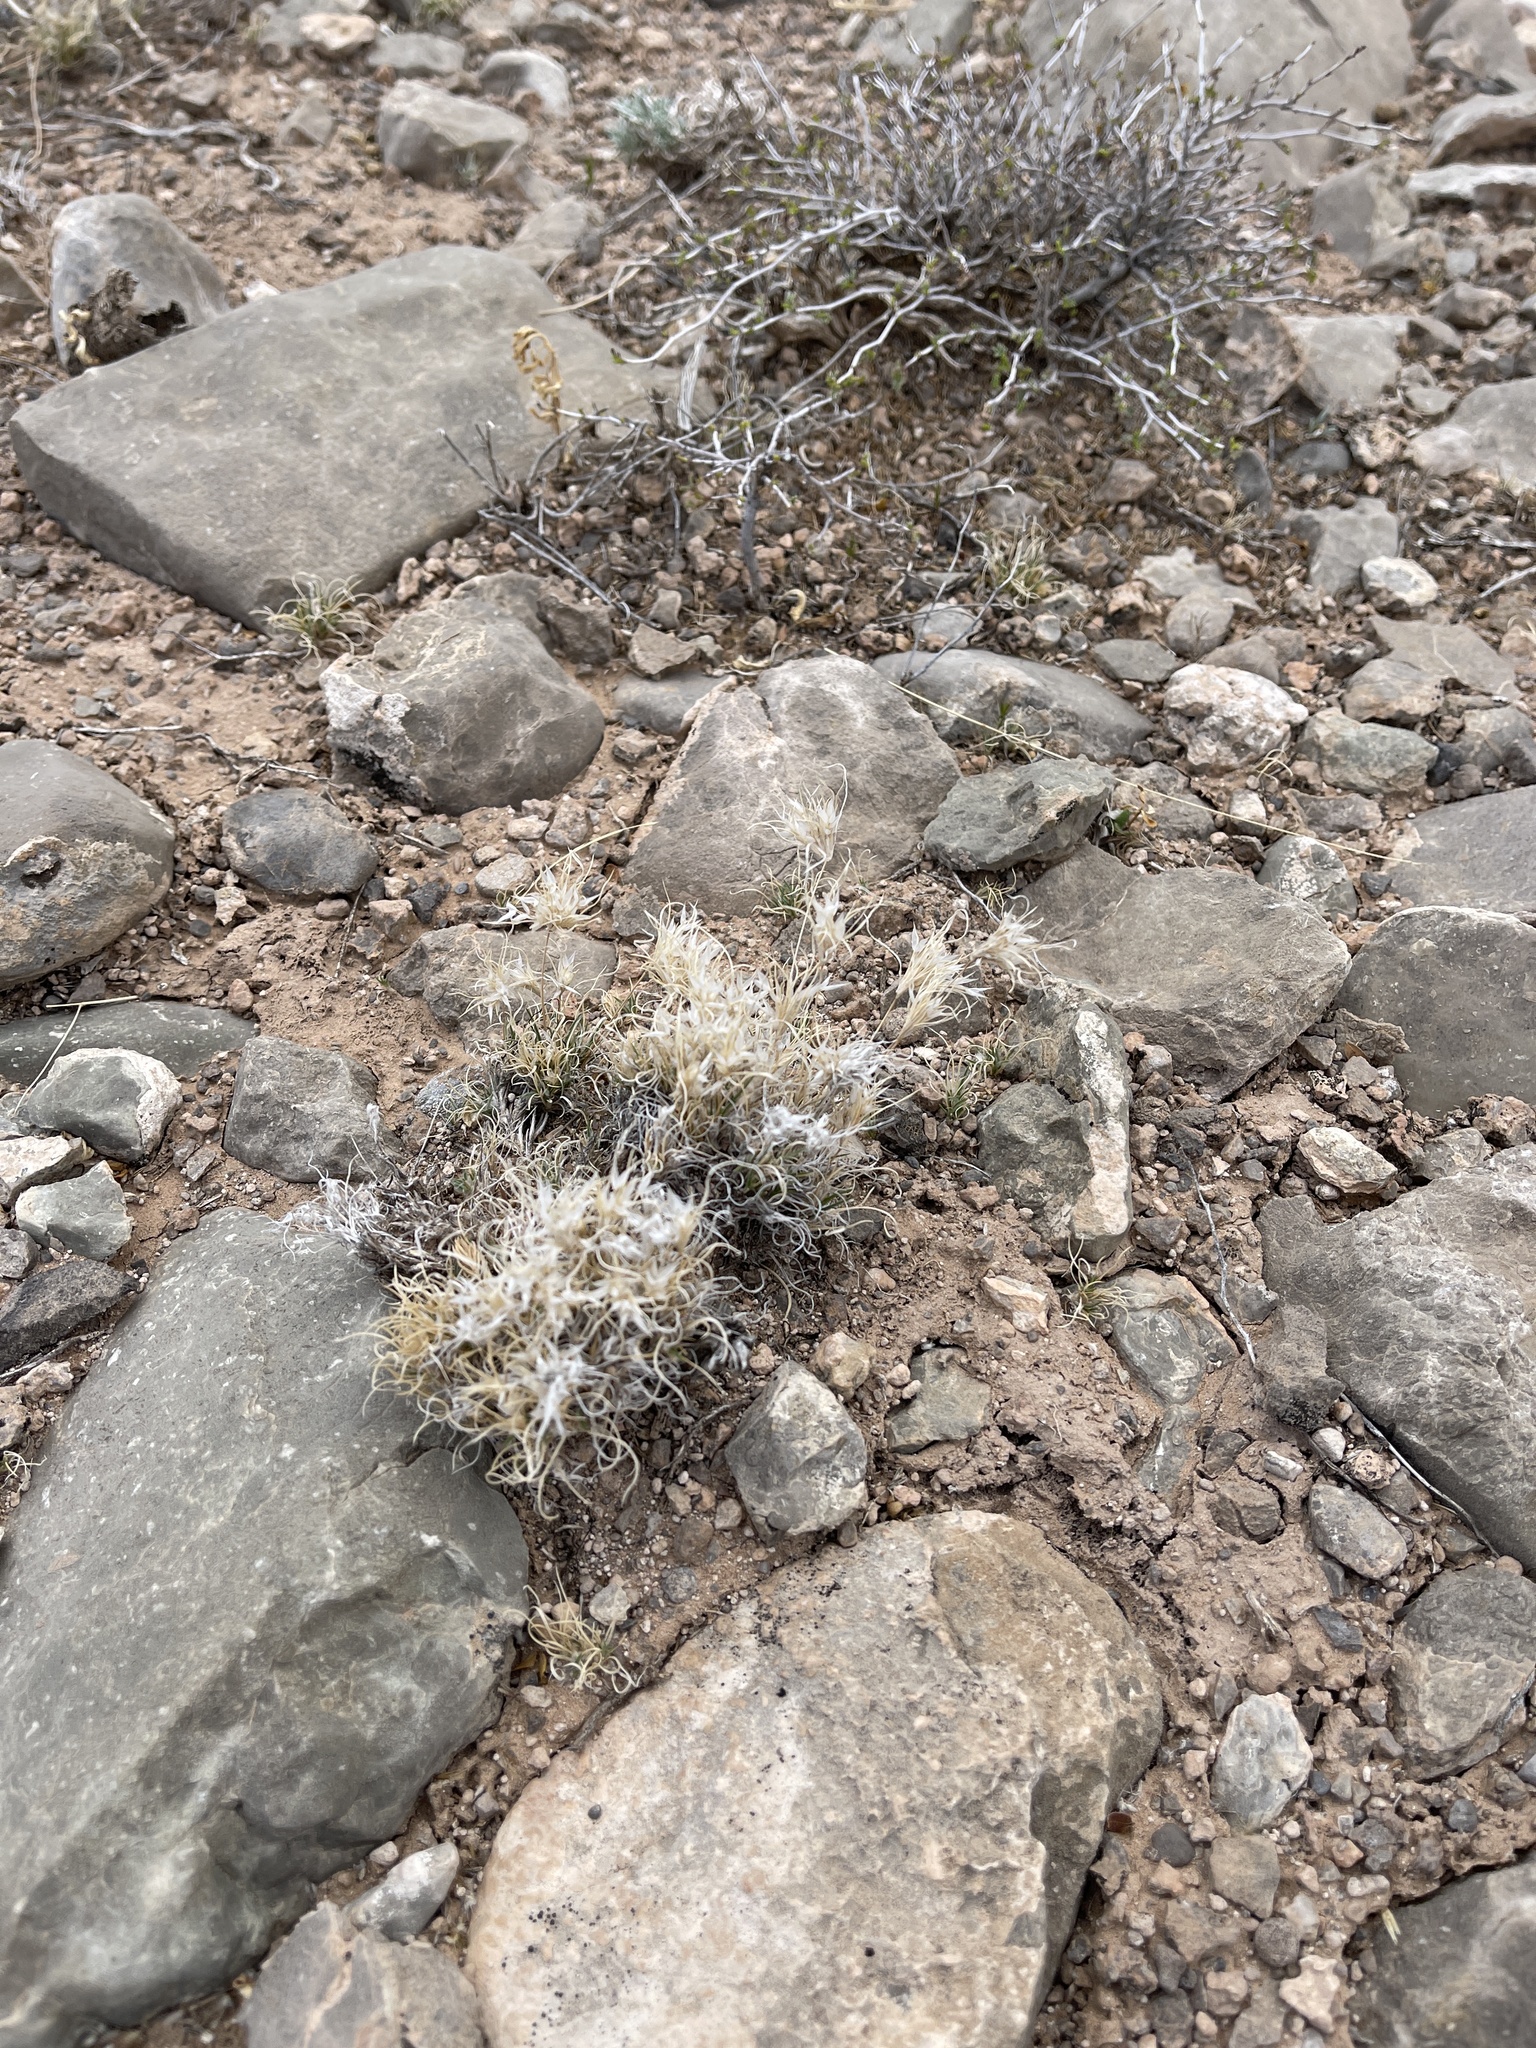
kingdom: Plantae
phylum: Tracheophyta
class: Liliopsida
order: Poales
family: Poaceae
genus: Dasyochloa
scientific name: Dasyochloa pulchella
